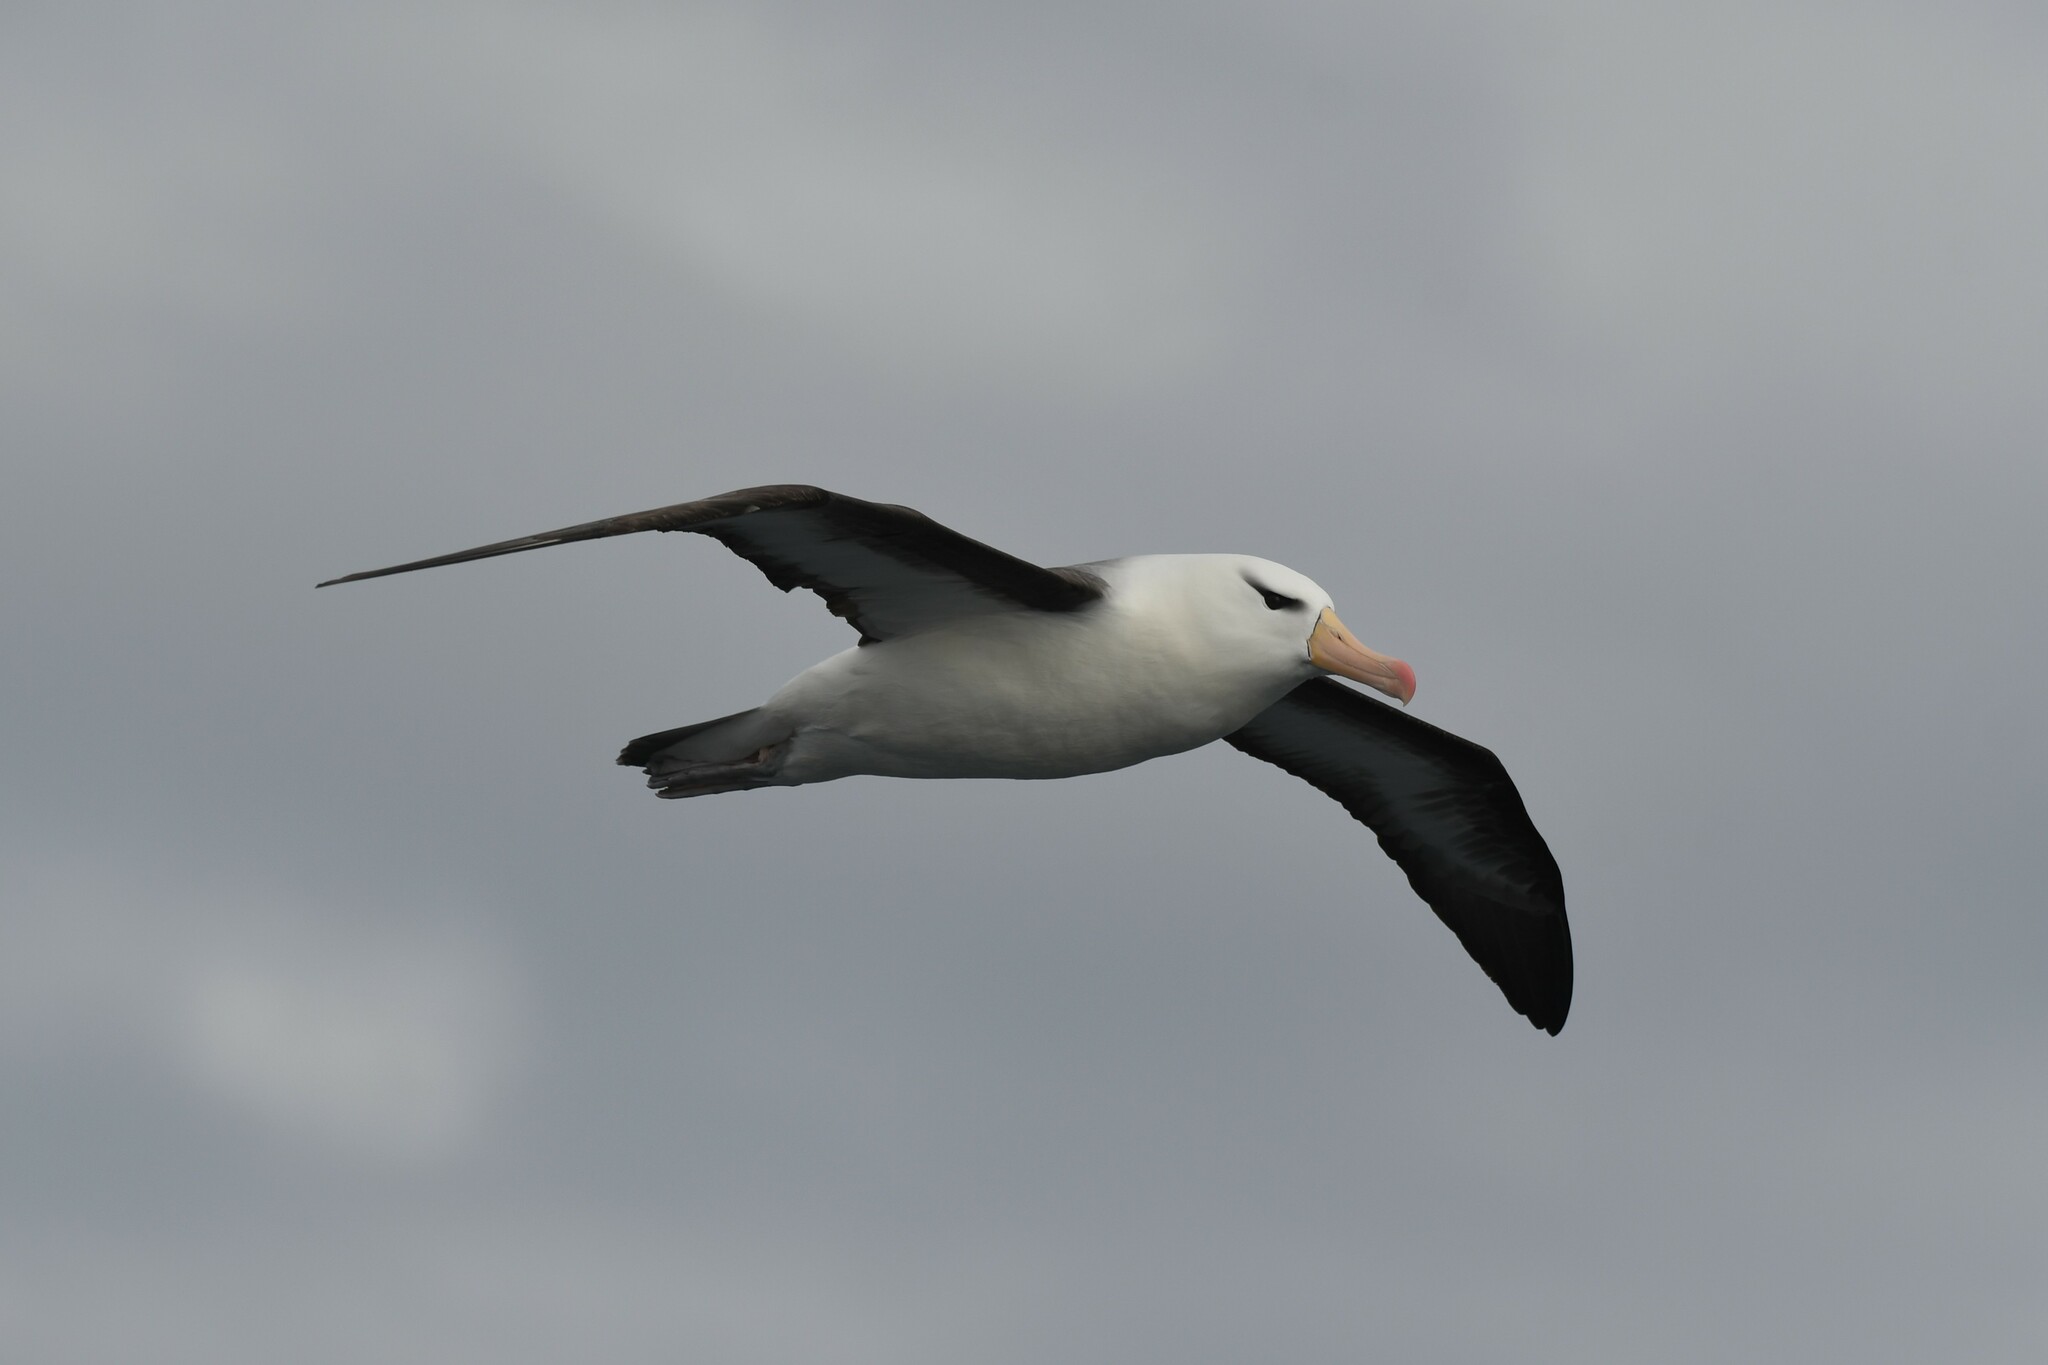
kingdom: Animalia
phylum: Chordata
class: Aves
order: Procellariiformes
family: Diomedeidae
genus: Thalassarche
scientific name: Thalassarche melanophris
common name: Black-browed albatross
